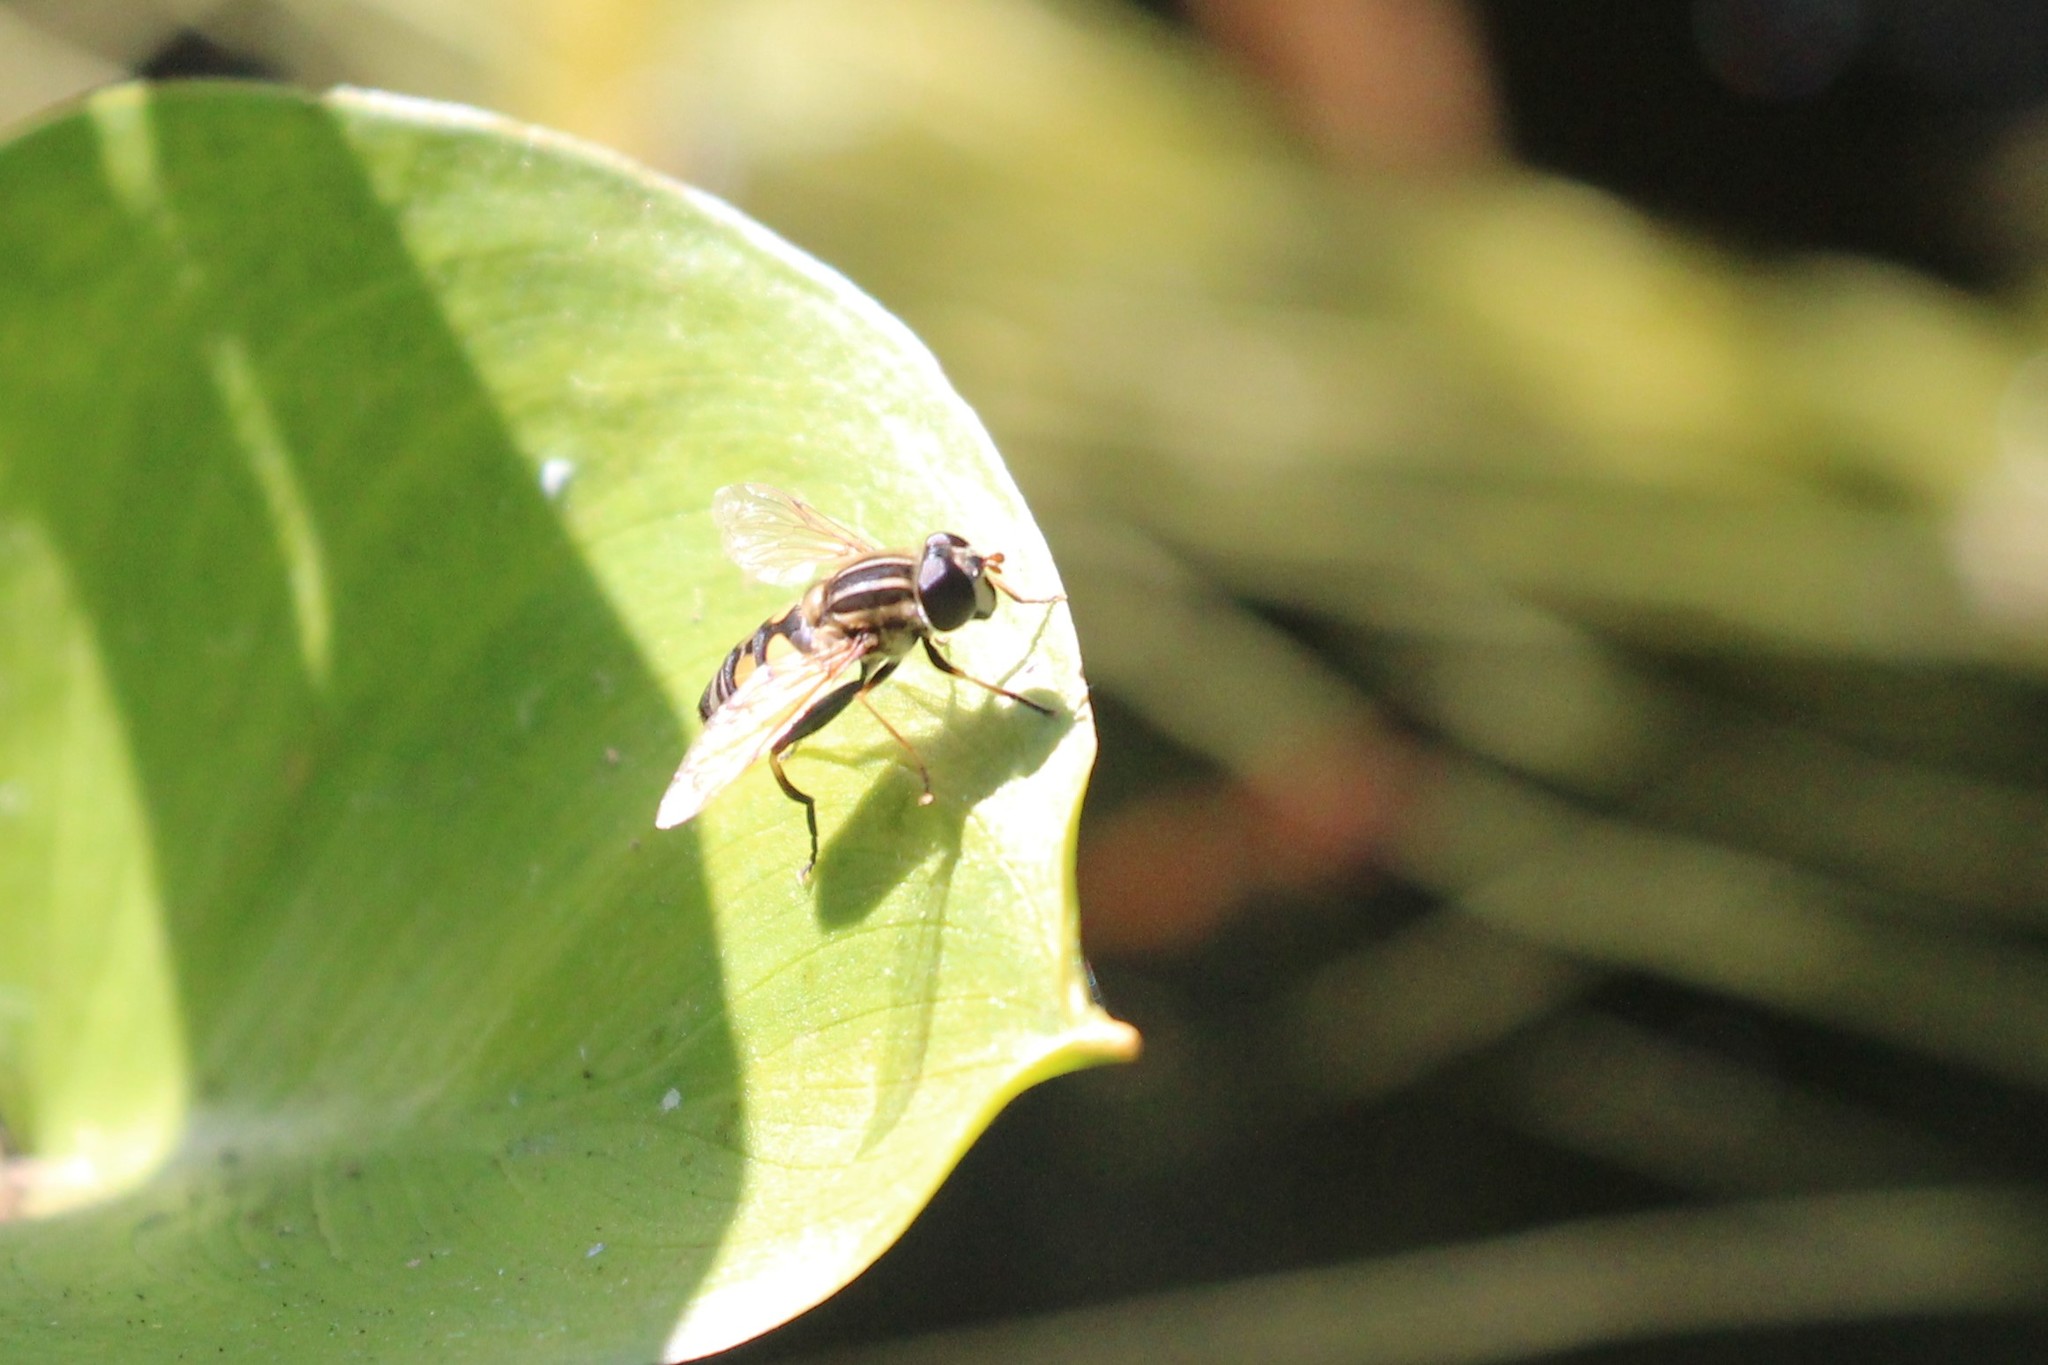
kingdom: Animalia
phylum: Arthropoda
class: Insecta
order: Diptera
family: Syrphidae
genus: Helophilus
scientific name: Helophilus fasciatus
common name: Narrow-headed marsh fly
